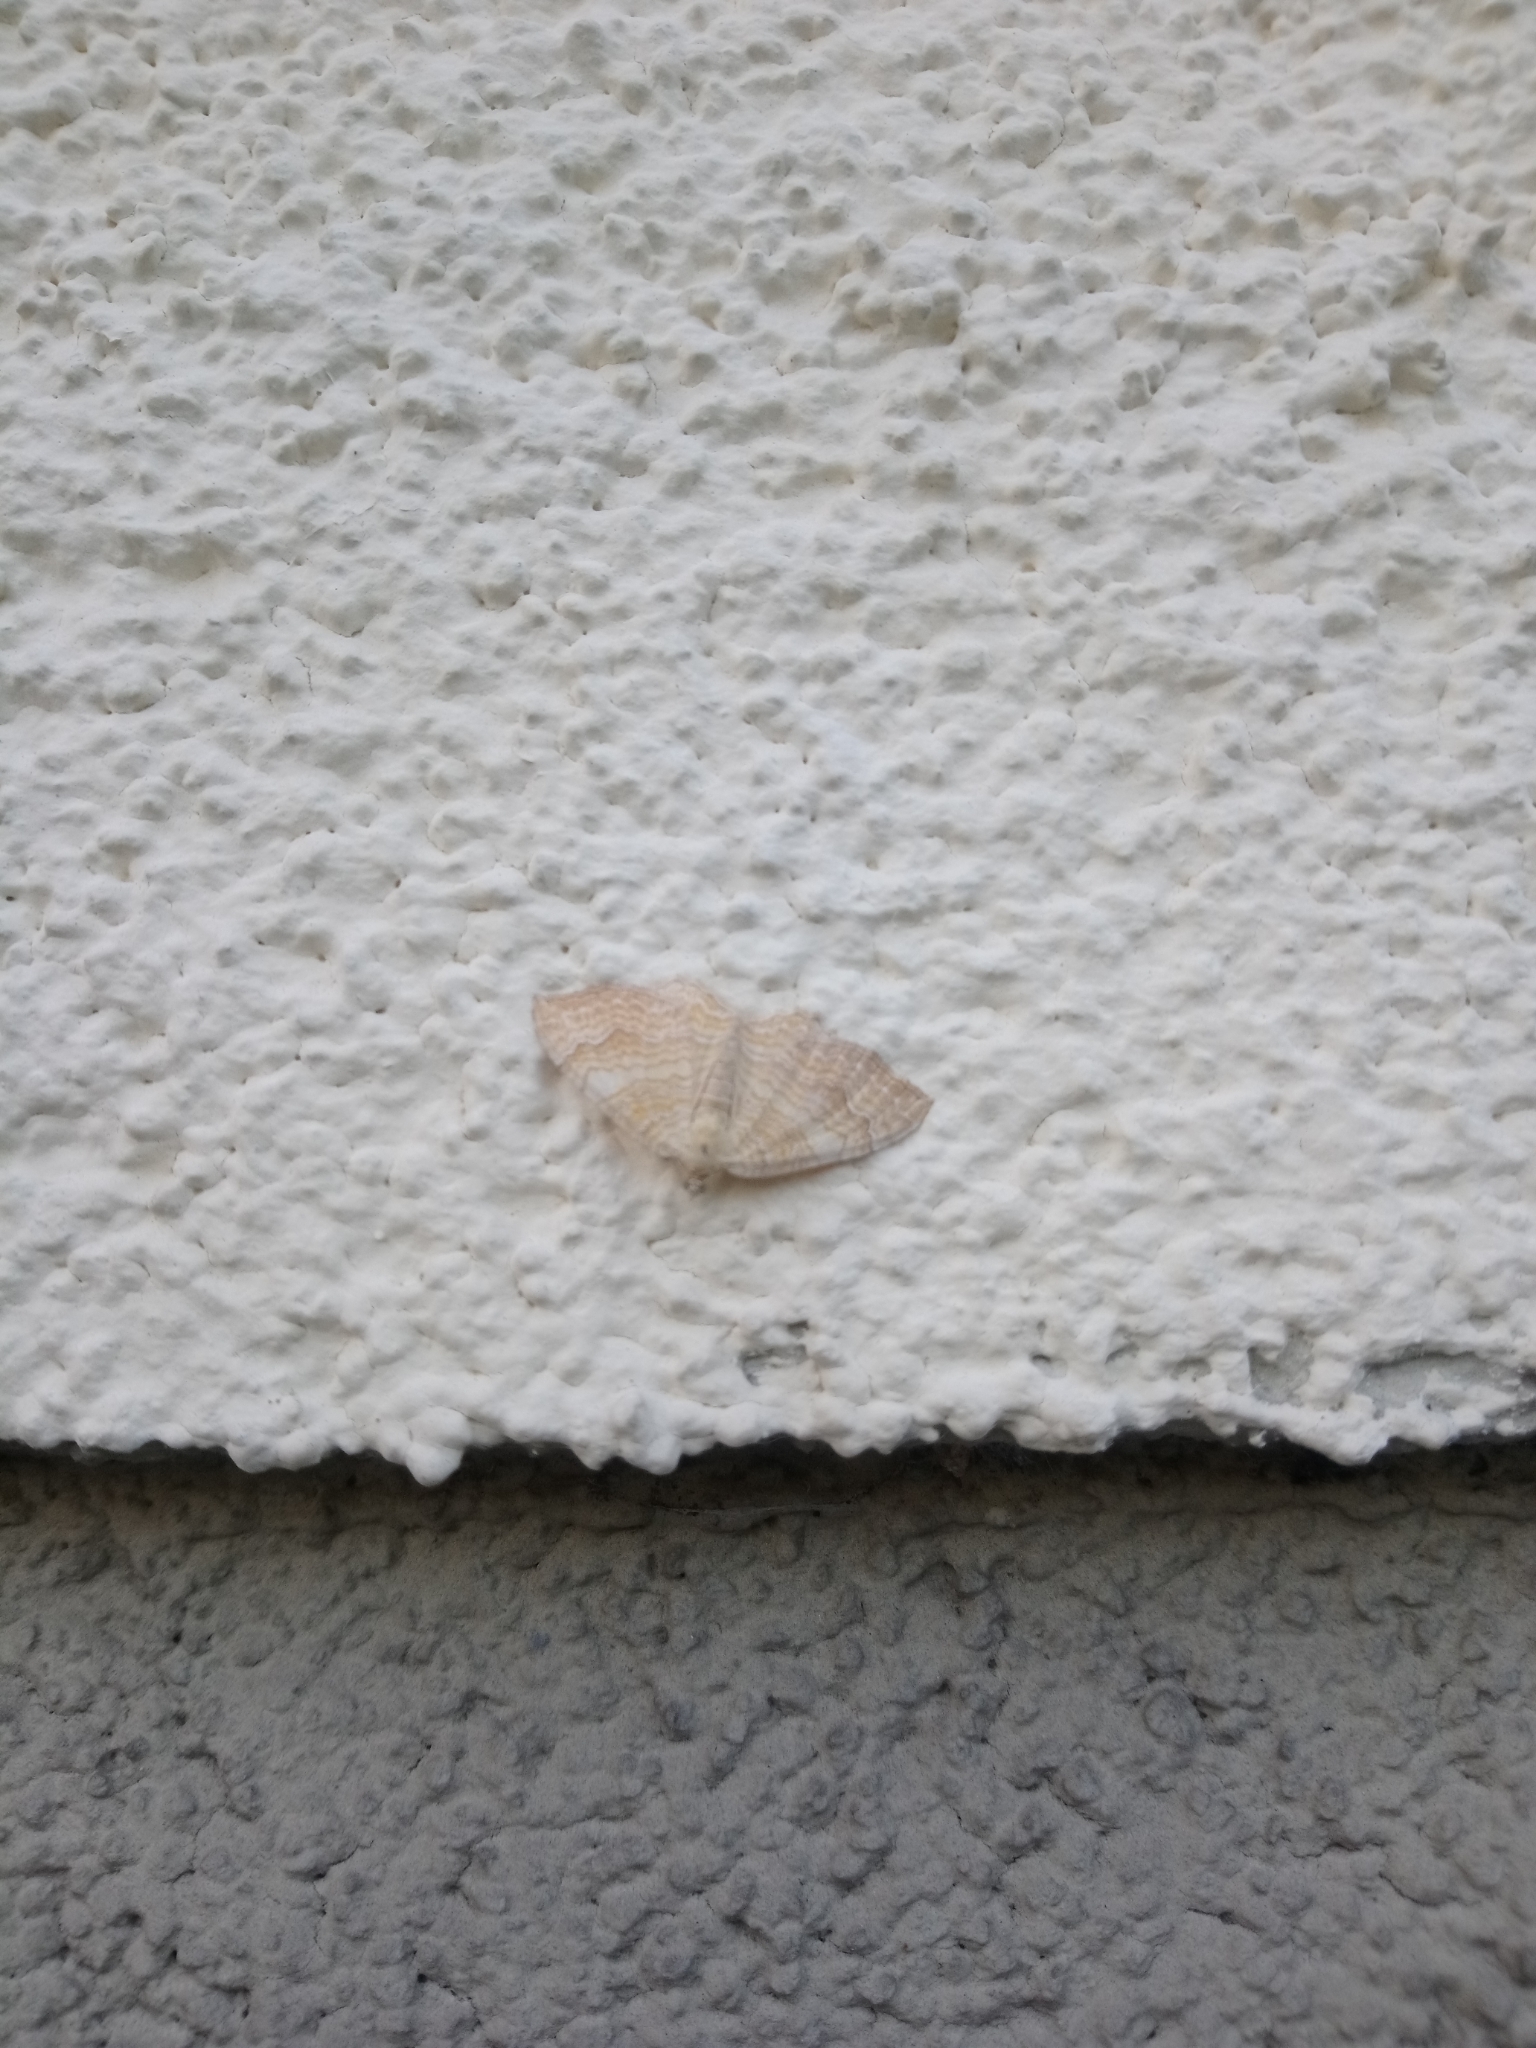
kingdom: Animalia
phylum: Arthropoda
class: Insecta
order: Lepidoptera
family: Geometridae
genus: Camptogramma
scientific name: Camptogramma bilineata
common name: Yellow shell
